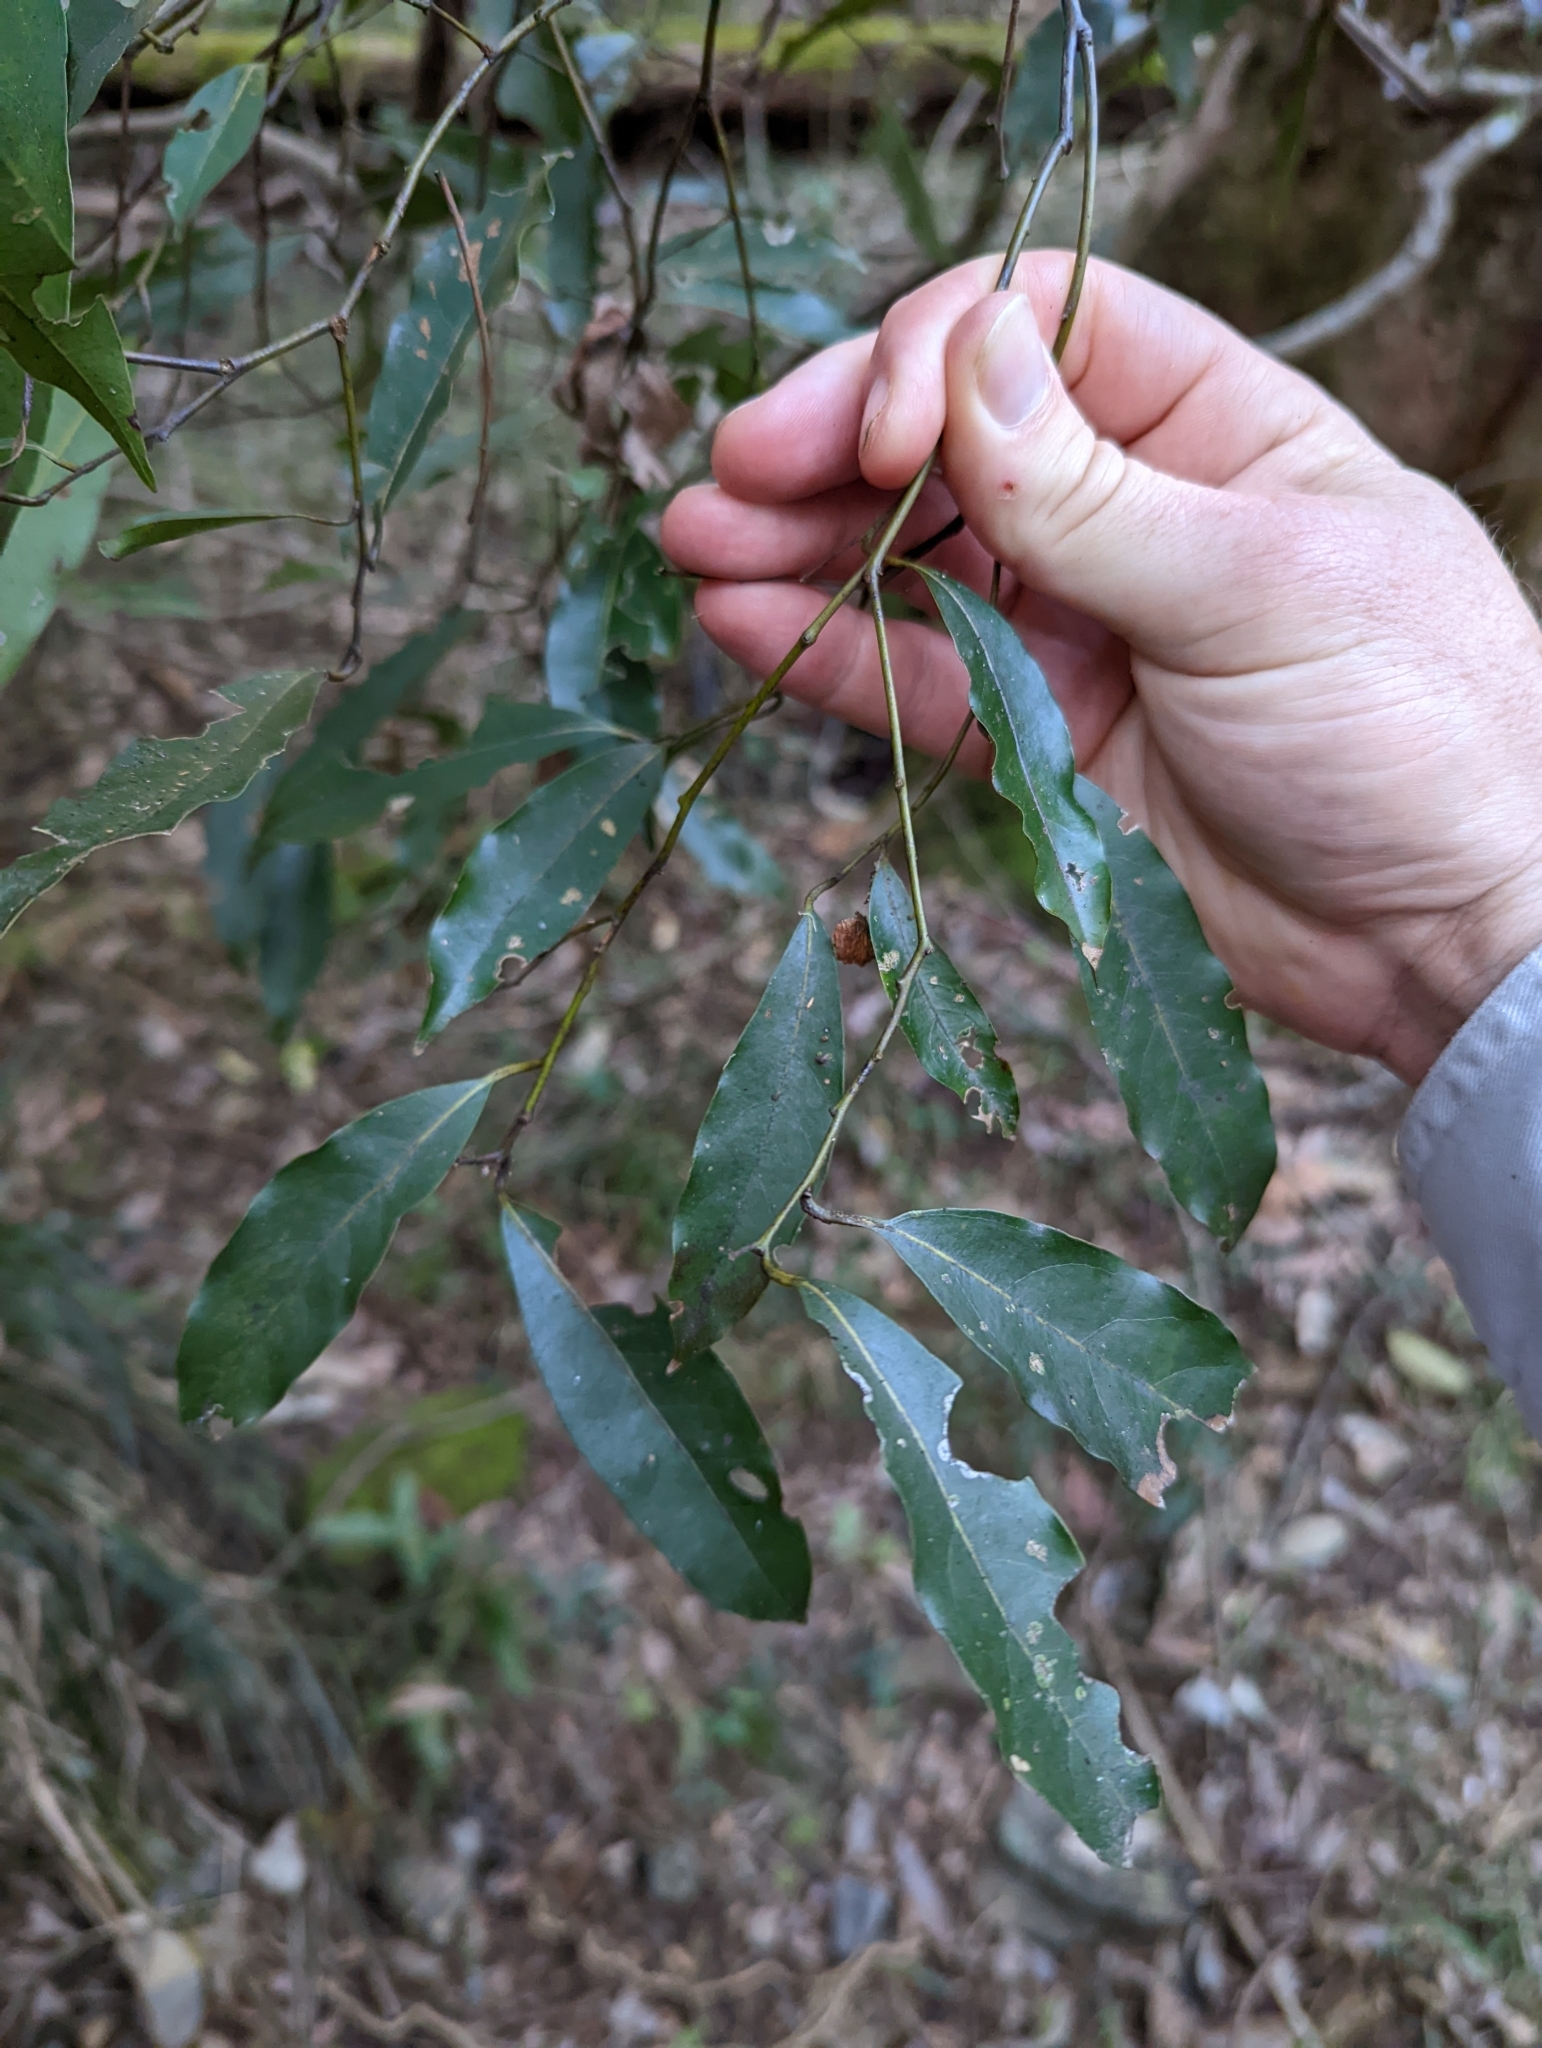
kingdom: Plantae
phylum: Tracheophyta
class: Magnoliopsida
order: Laurales
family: Lauraceae
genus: Cryptocarya
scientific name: Cryptocarya microneura
